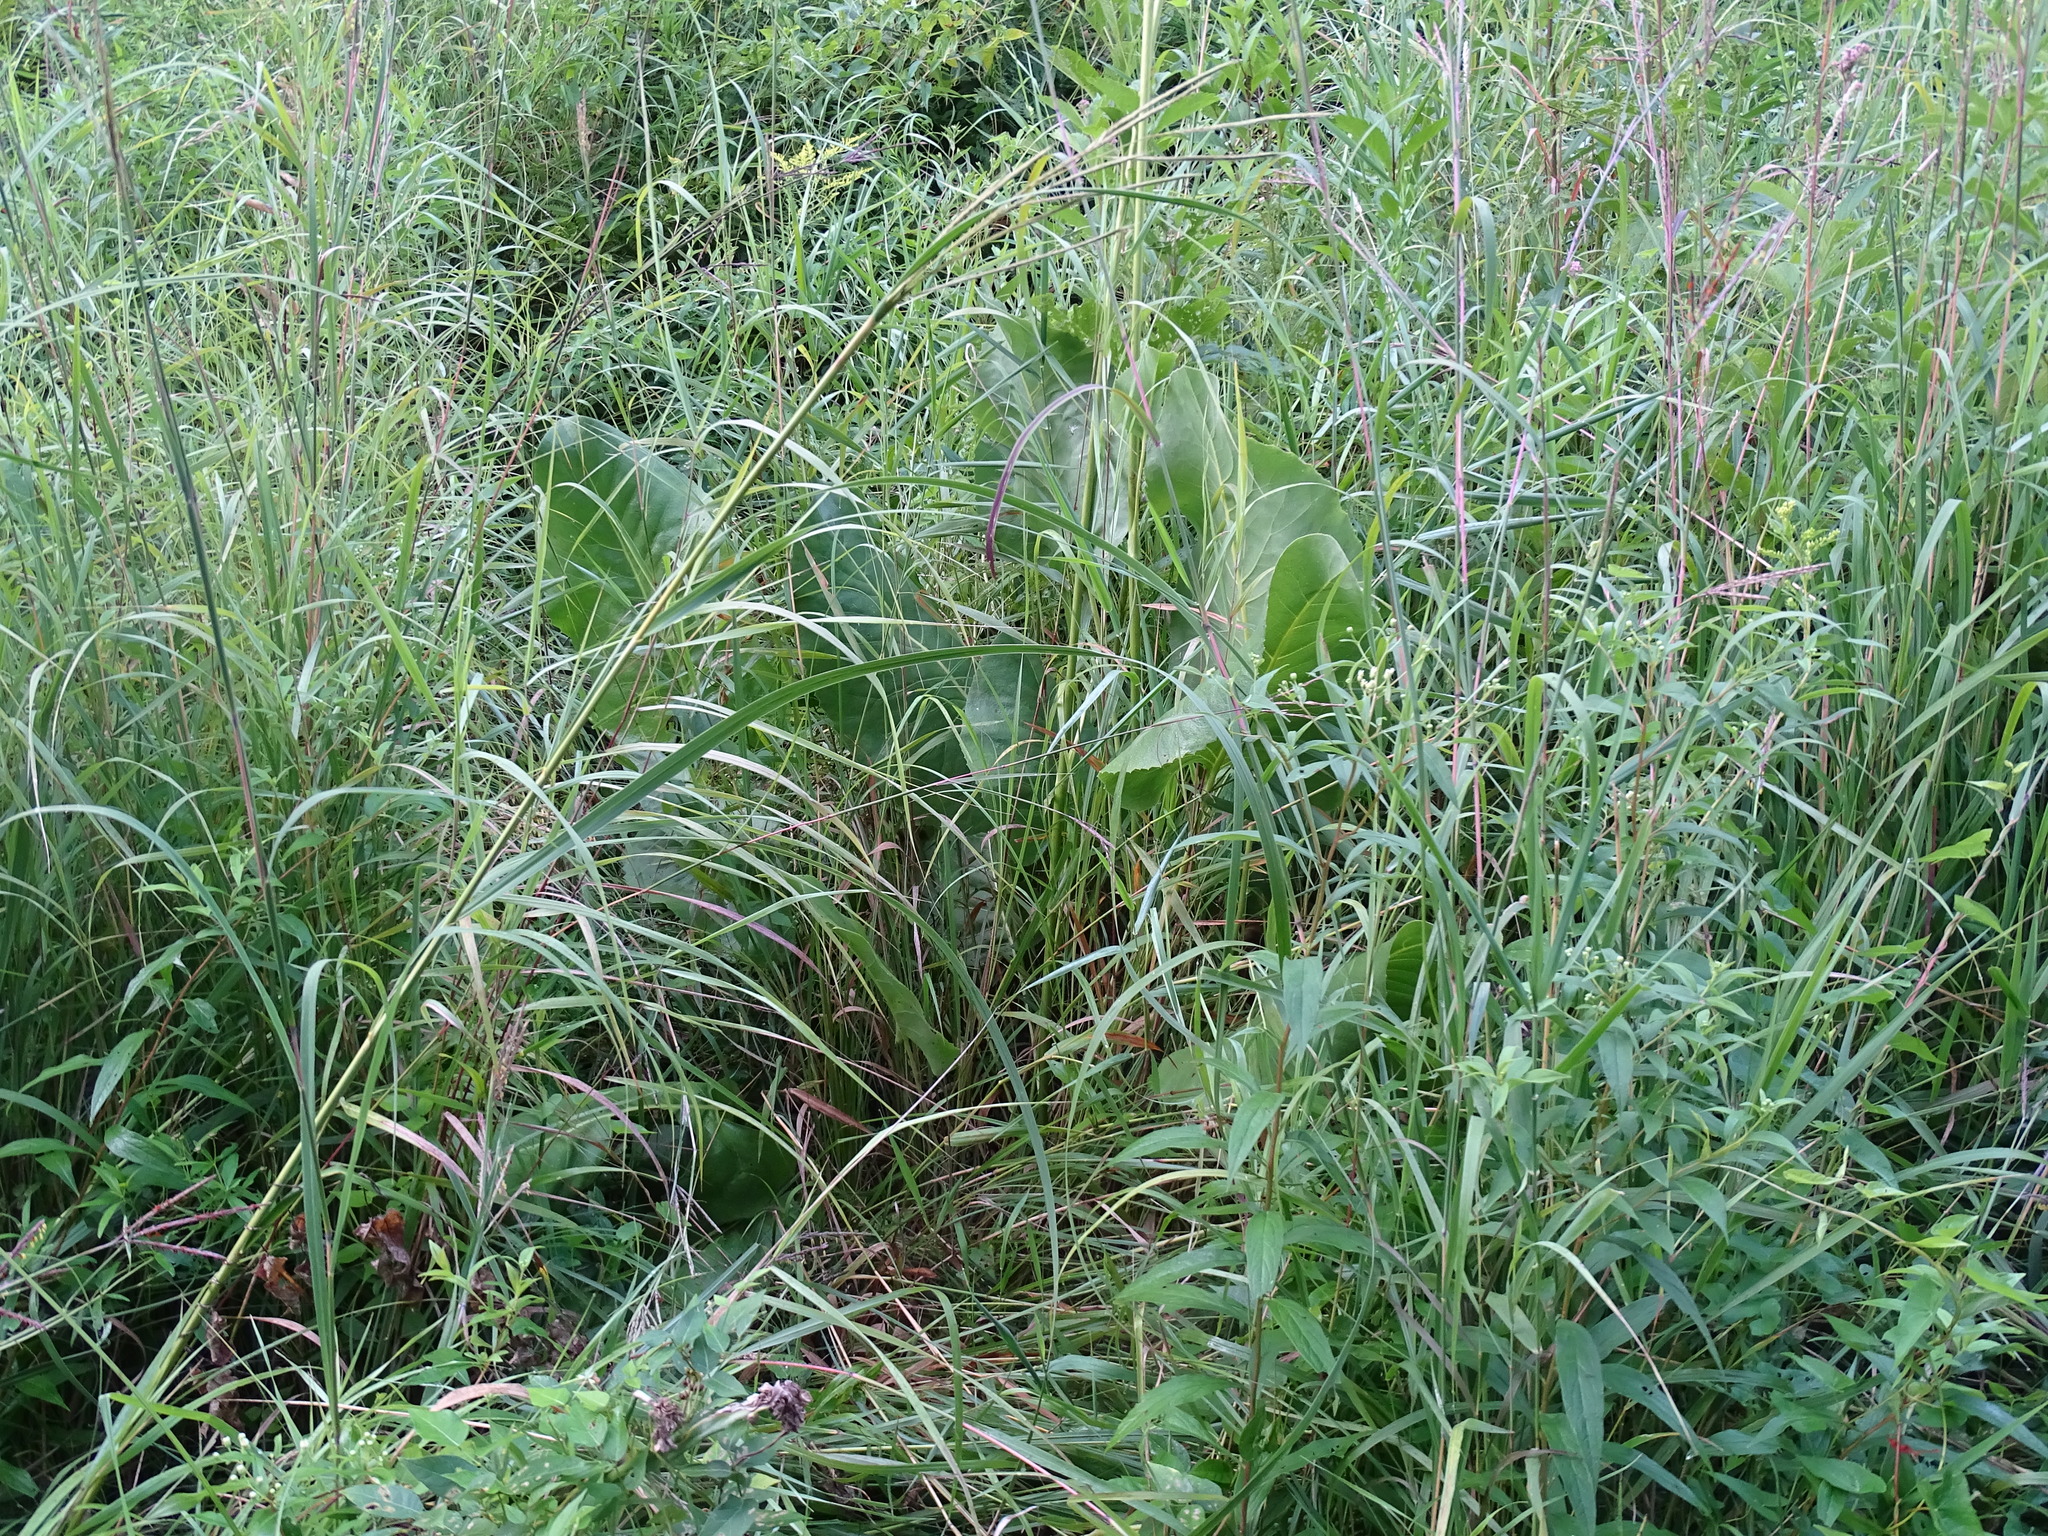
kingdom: Plantae
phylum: Tracheophyta
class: Magnoliopsida
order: Asterales
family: Asteraceae
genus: Silphium
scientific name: Silphium terebinthinaceum
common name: Basal-leaf rosinweed
